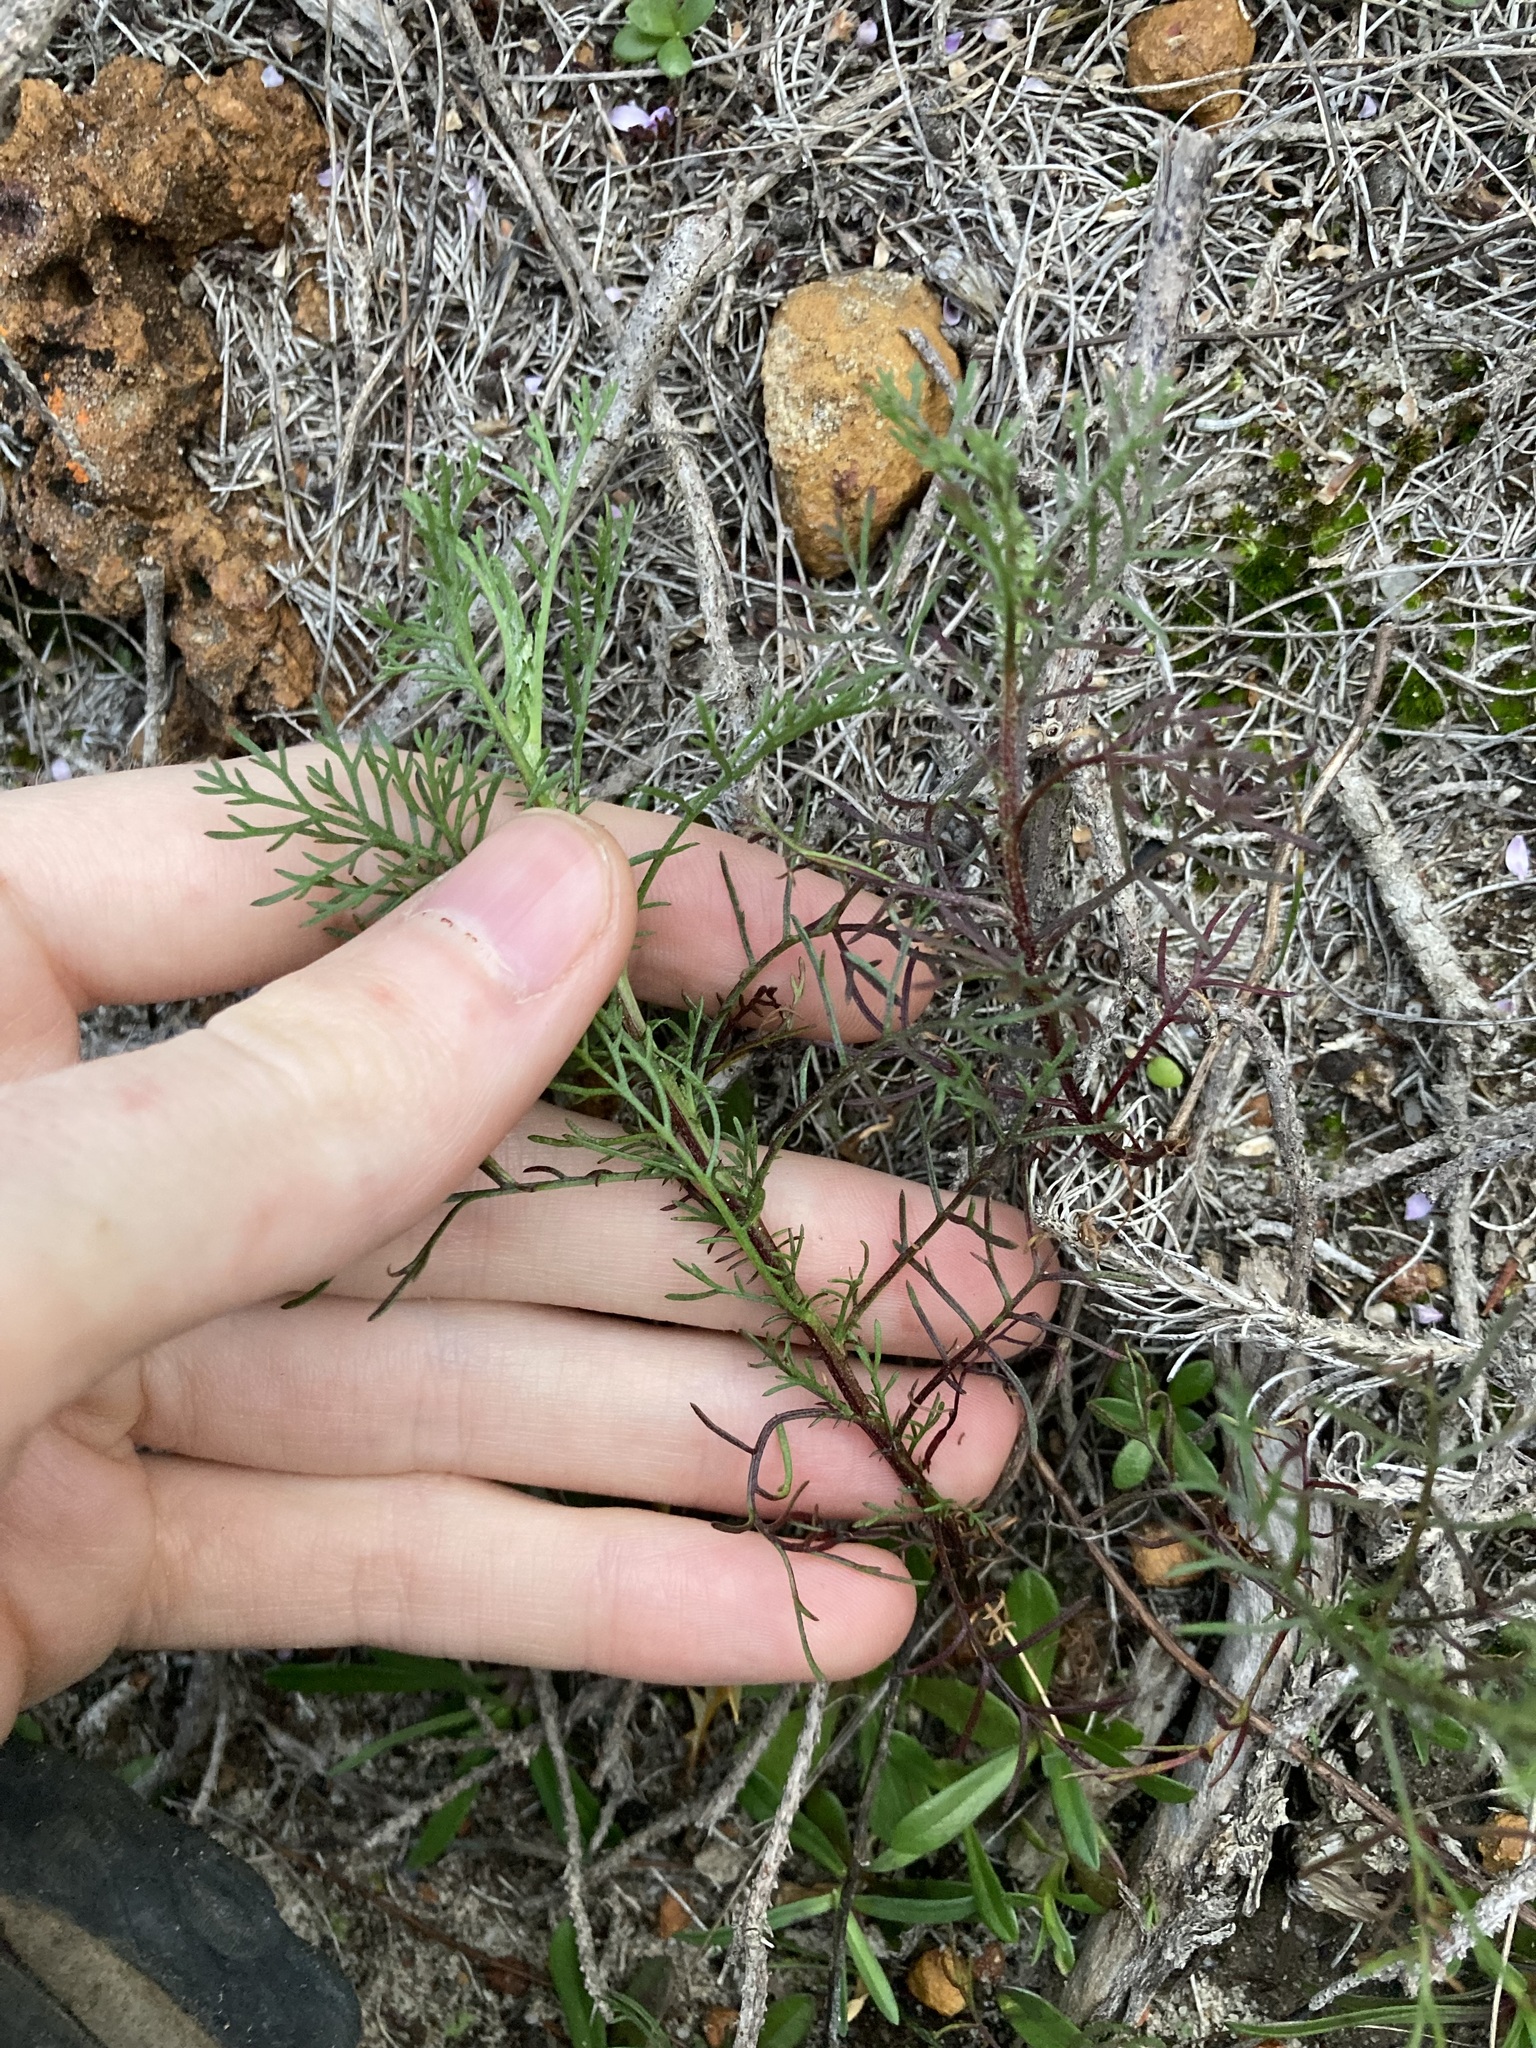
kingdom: Plantae
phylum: Tracheophyta
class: Magnoliopsida
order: Asterales
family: Asteraceae
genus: Ursinia
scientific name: Ursinia anthemoides
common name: Ursinia
